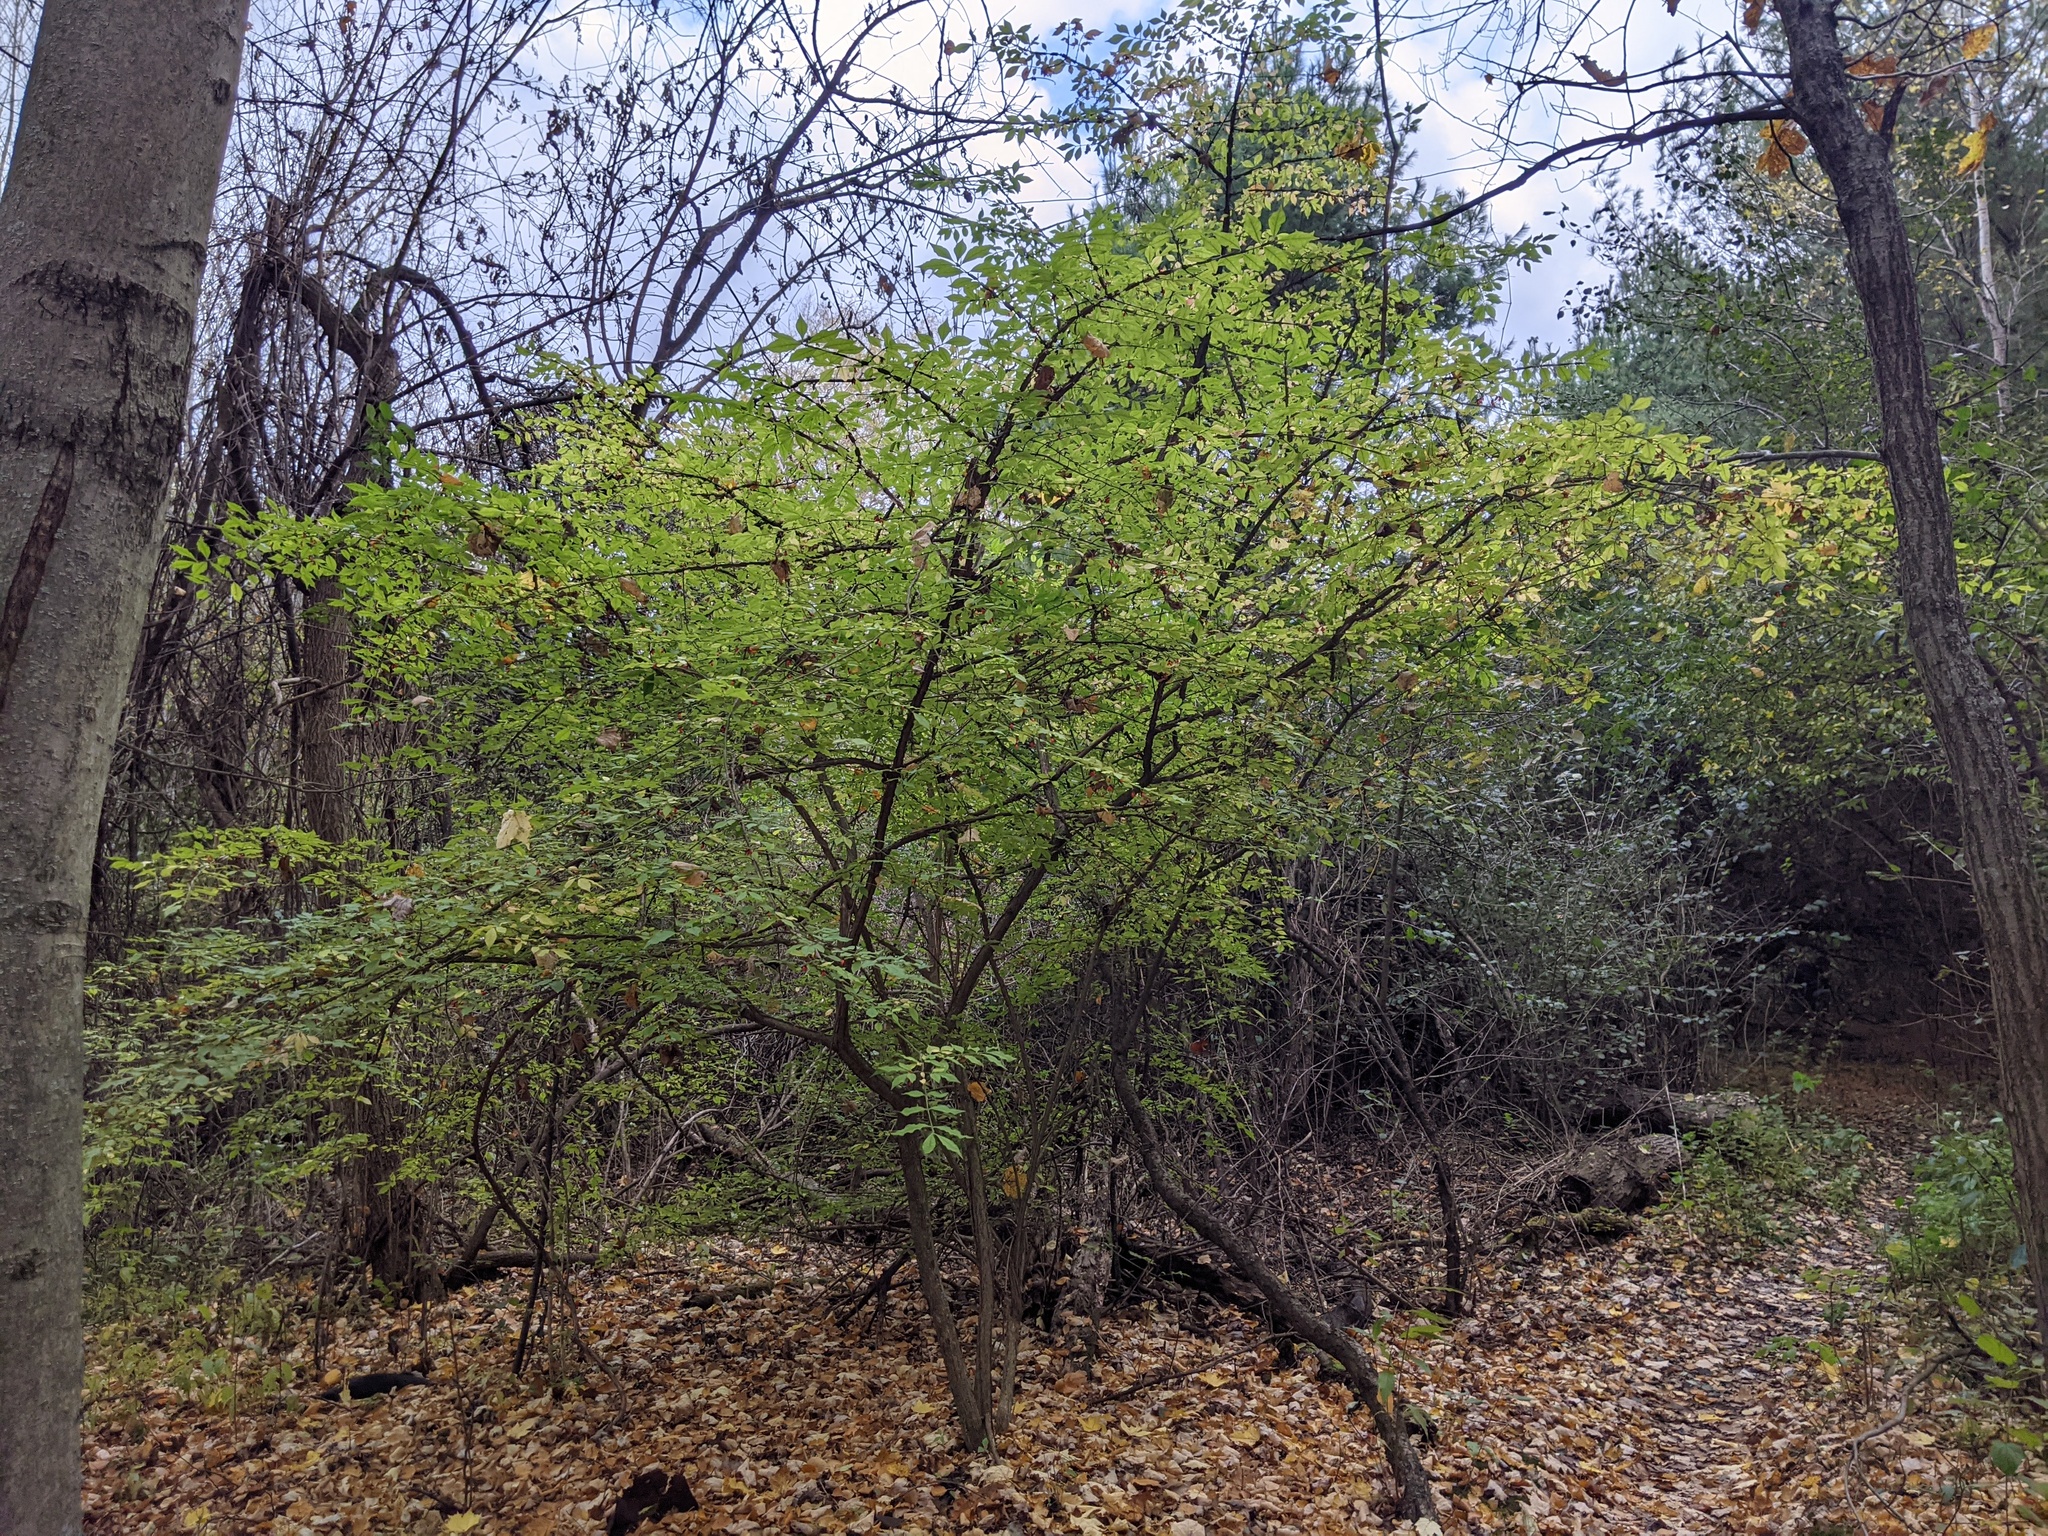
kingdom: Plantae
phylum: Tracheophyta
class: Magnoliopsida
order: Celastrales
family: Celastraceae
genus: Euonymus
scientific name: Euonymus alatus
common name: Winged euonymus
